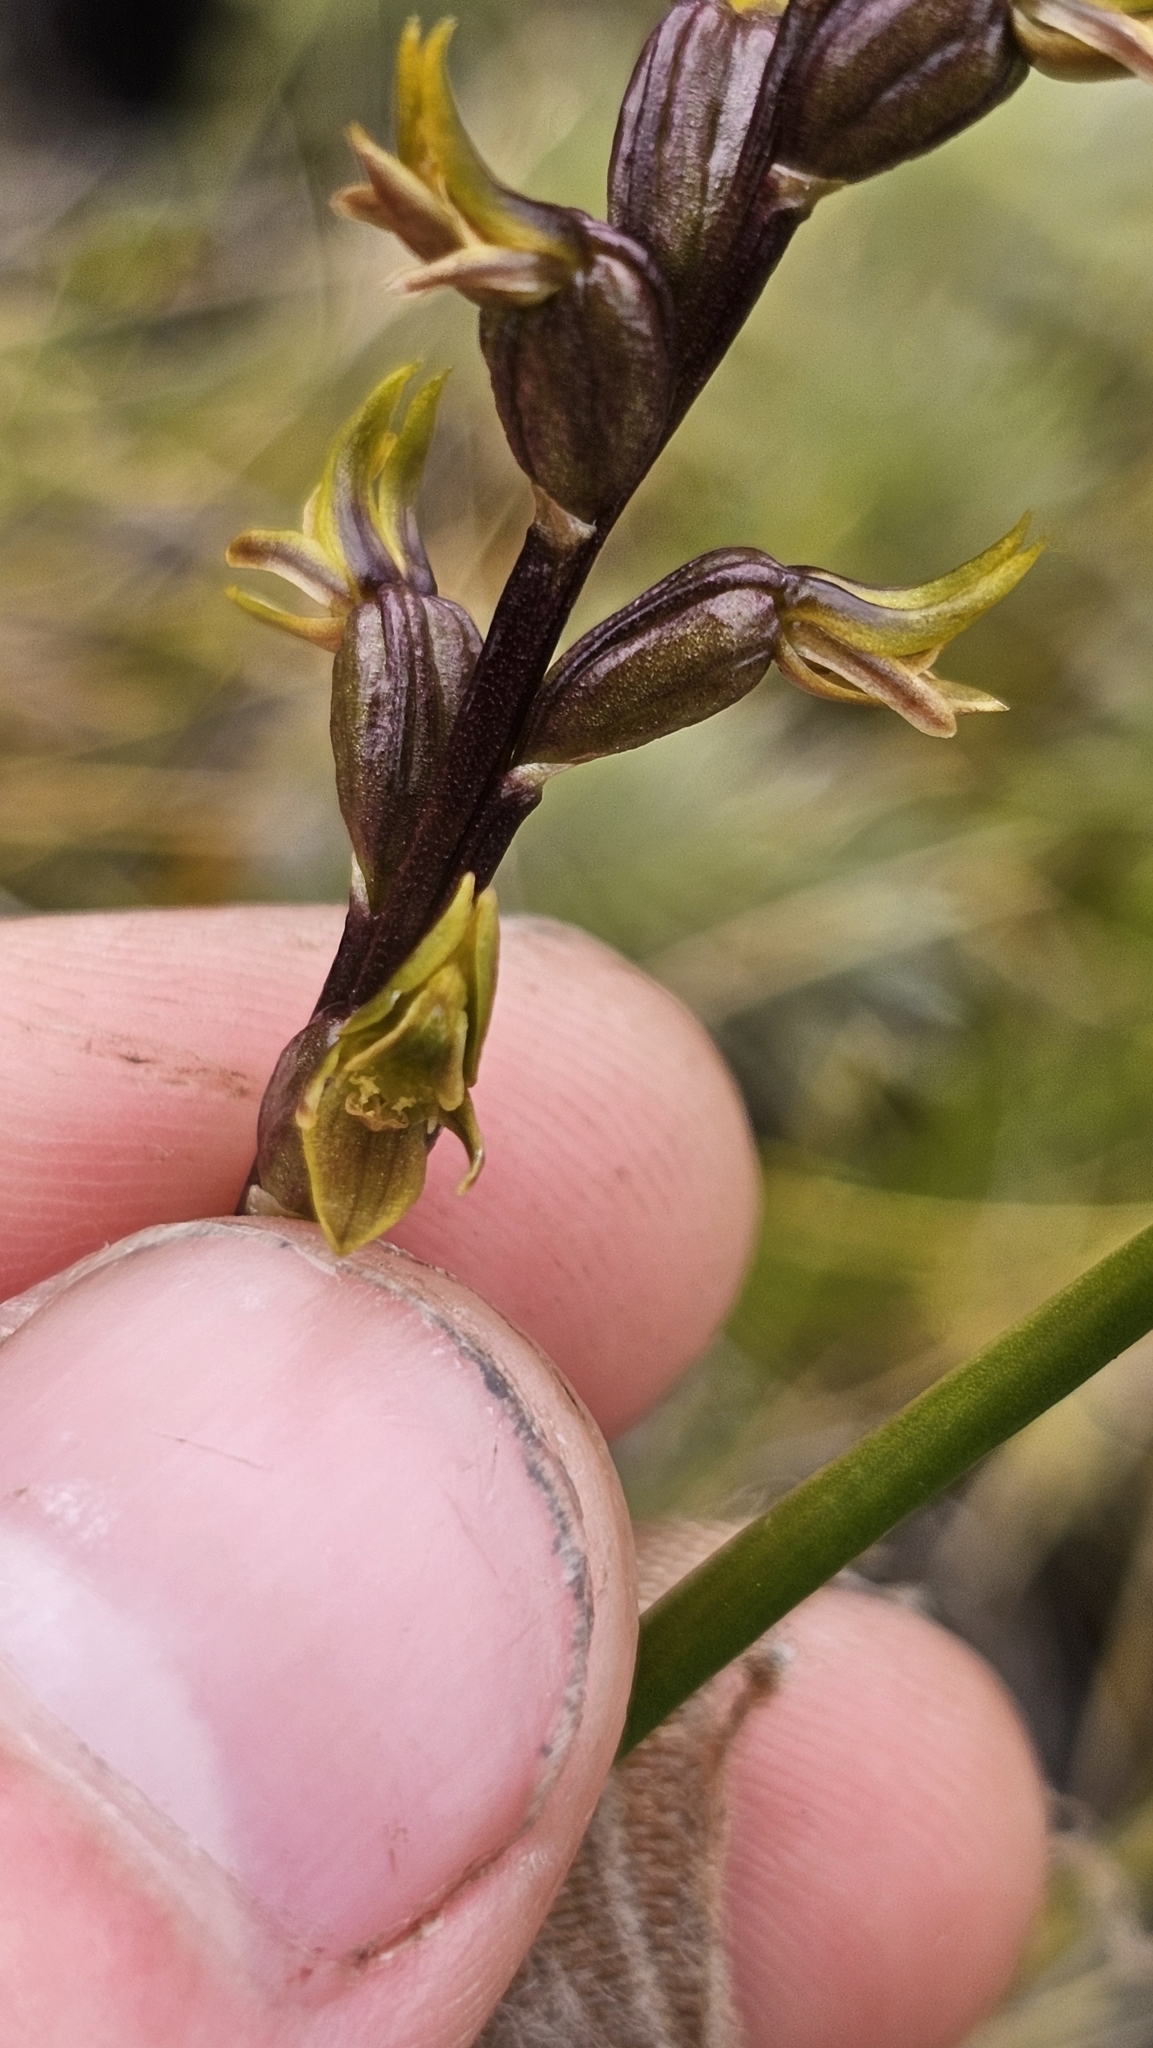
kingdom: Plantae
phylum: Tracheophyta
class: Liliopsida
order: Asparagales
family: Orchidaceae
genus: Prasophyllum
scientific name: Prasophyllum colensoi
